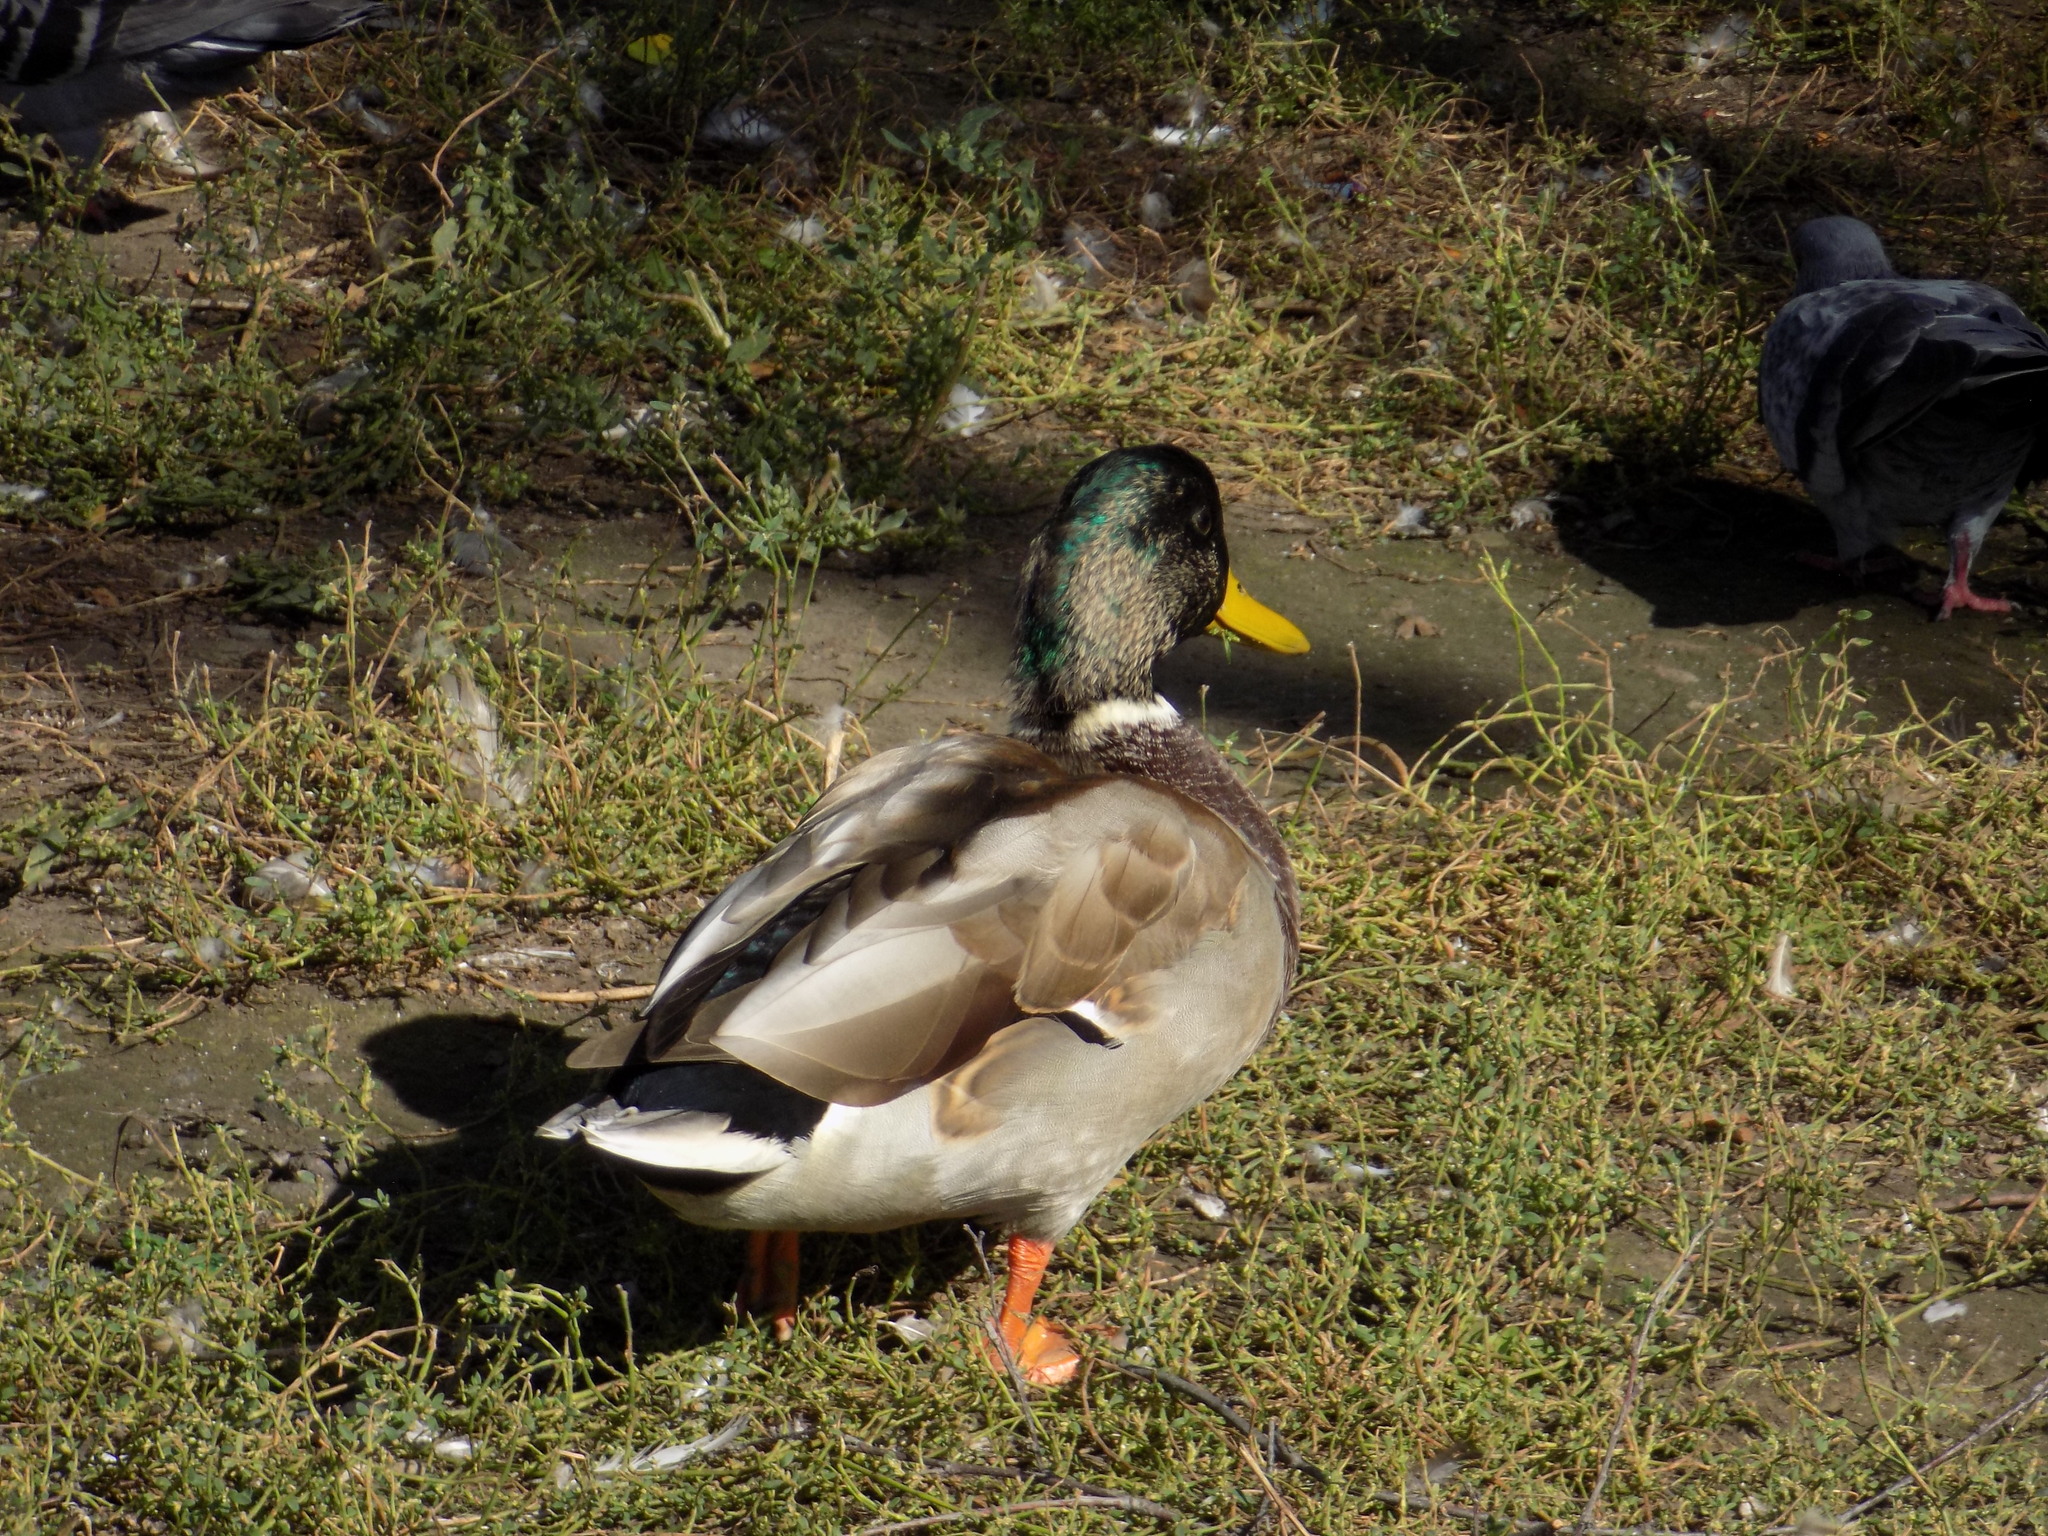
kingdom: Animalia
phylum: Chordata
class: Aves
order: Anseriformes
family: Anatidae
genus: Anas
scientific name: Anas platyrhynchos
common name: Mallard
